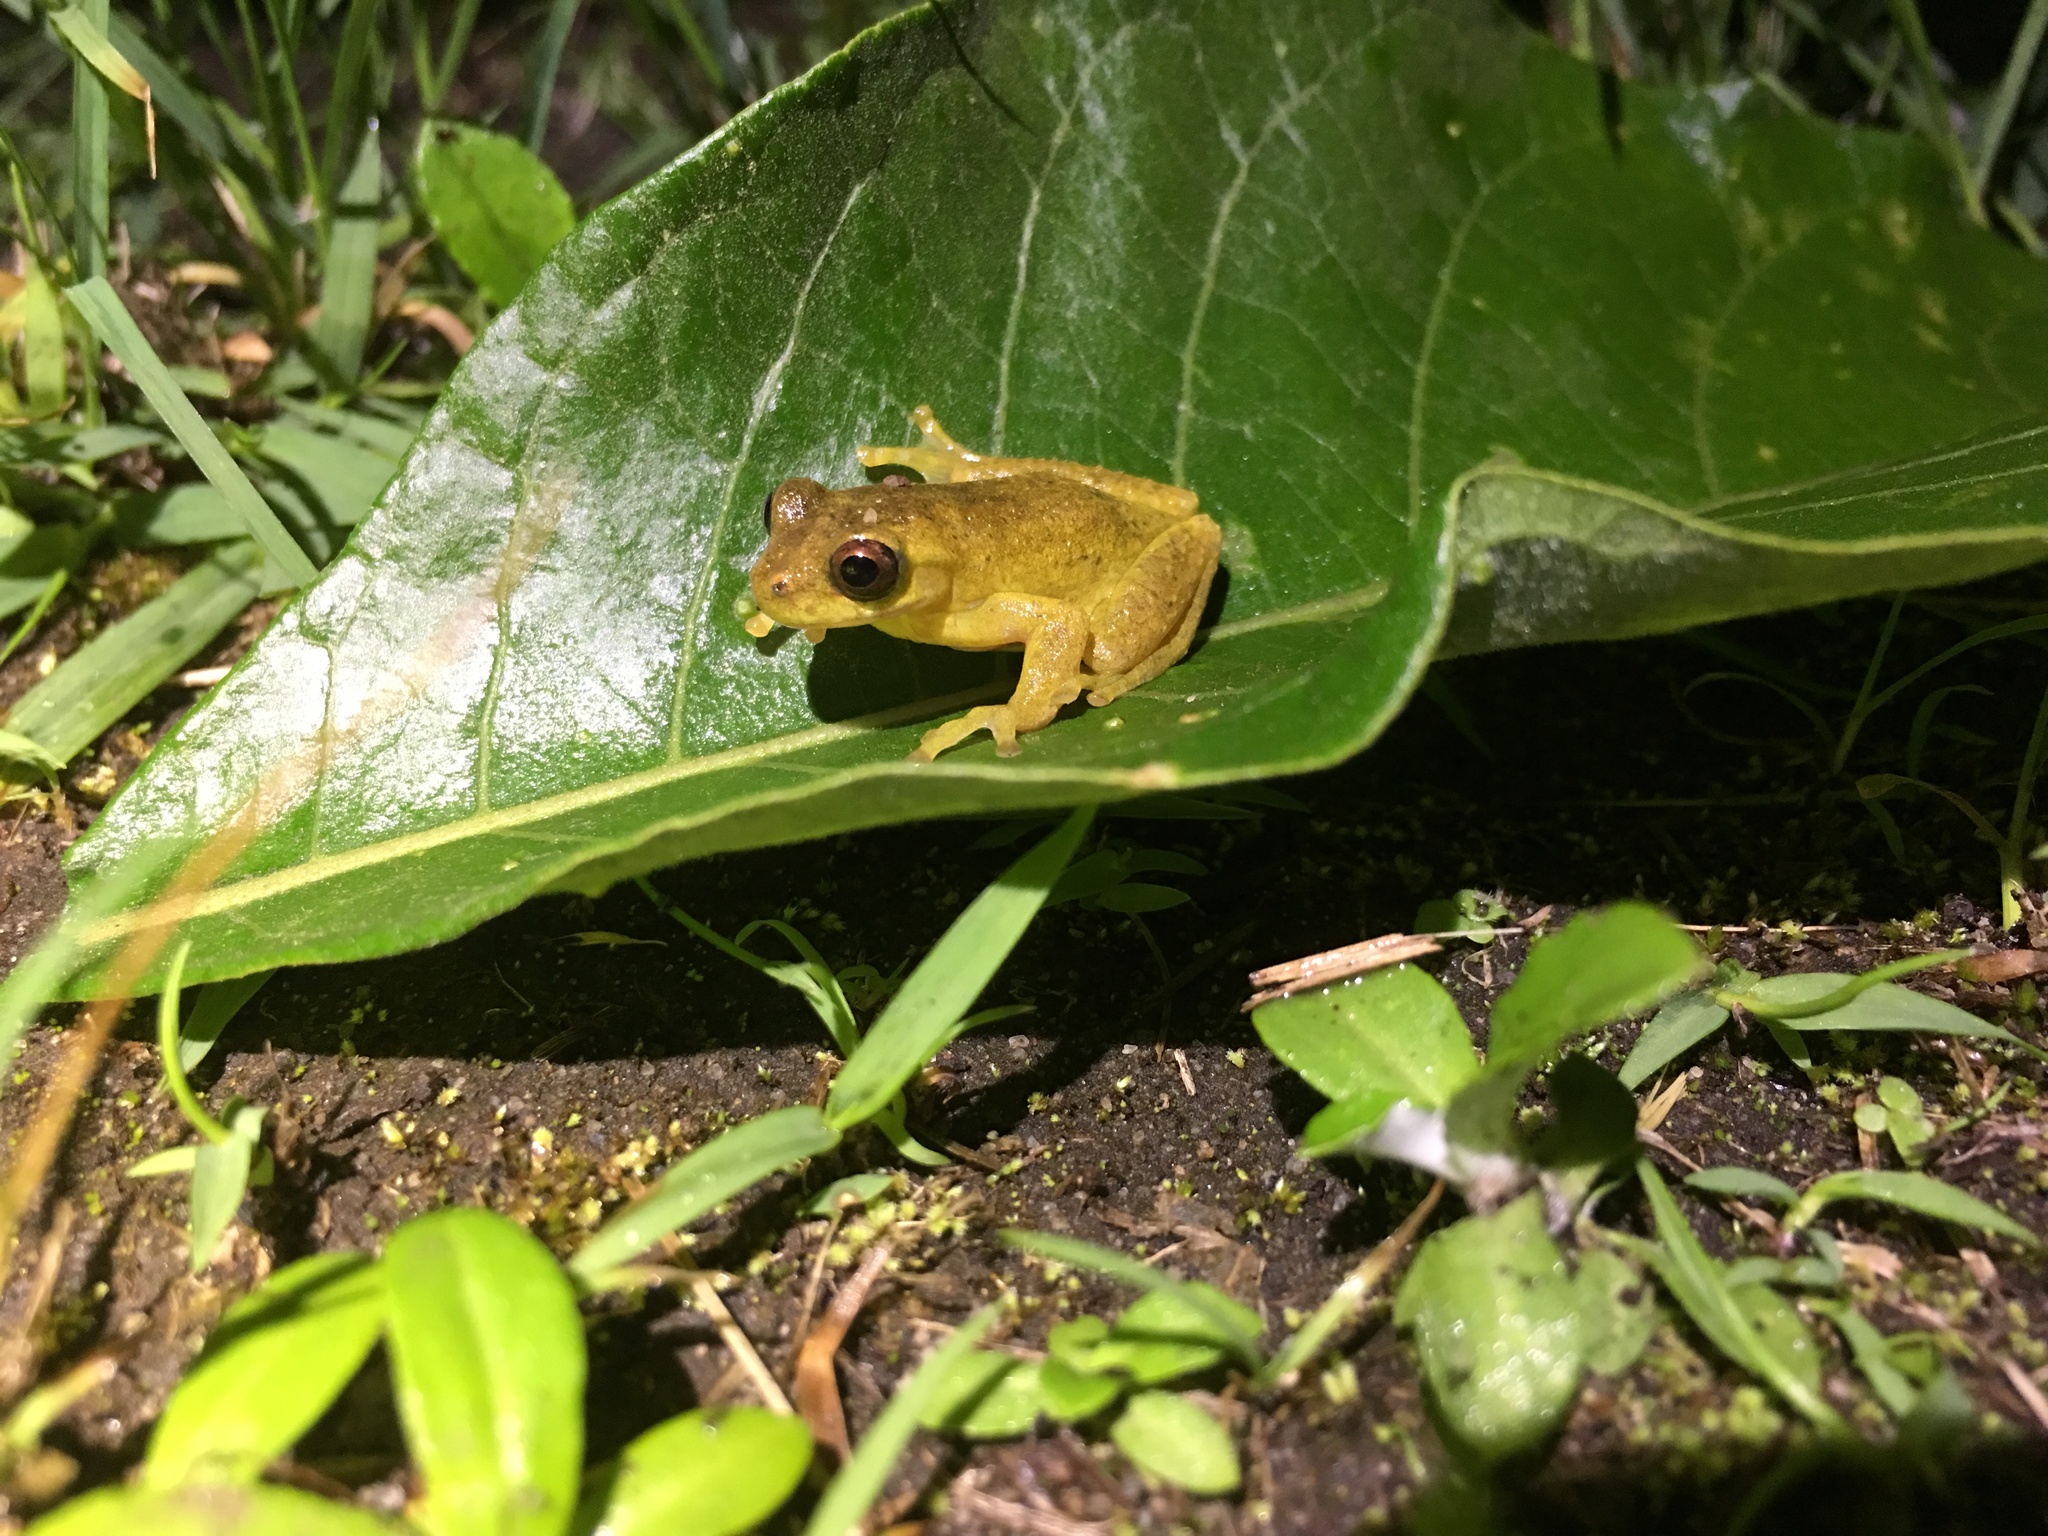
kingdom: Animalia
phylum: Chordata
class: Amphibia
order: Anura
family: Hylidae
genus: Dendropsophus
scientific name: Dendropsophus carnifex
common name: Executioner treefrog
